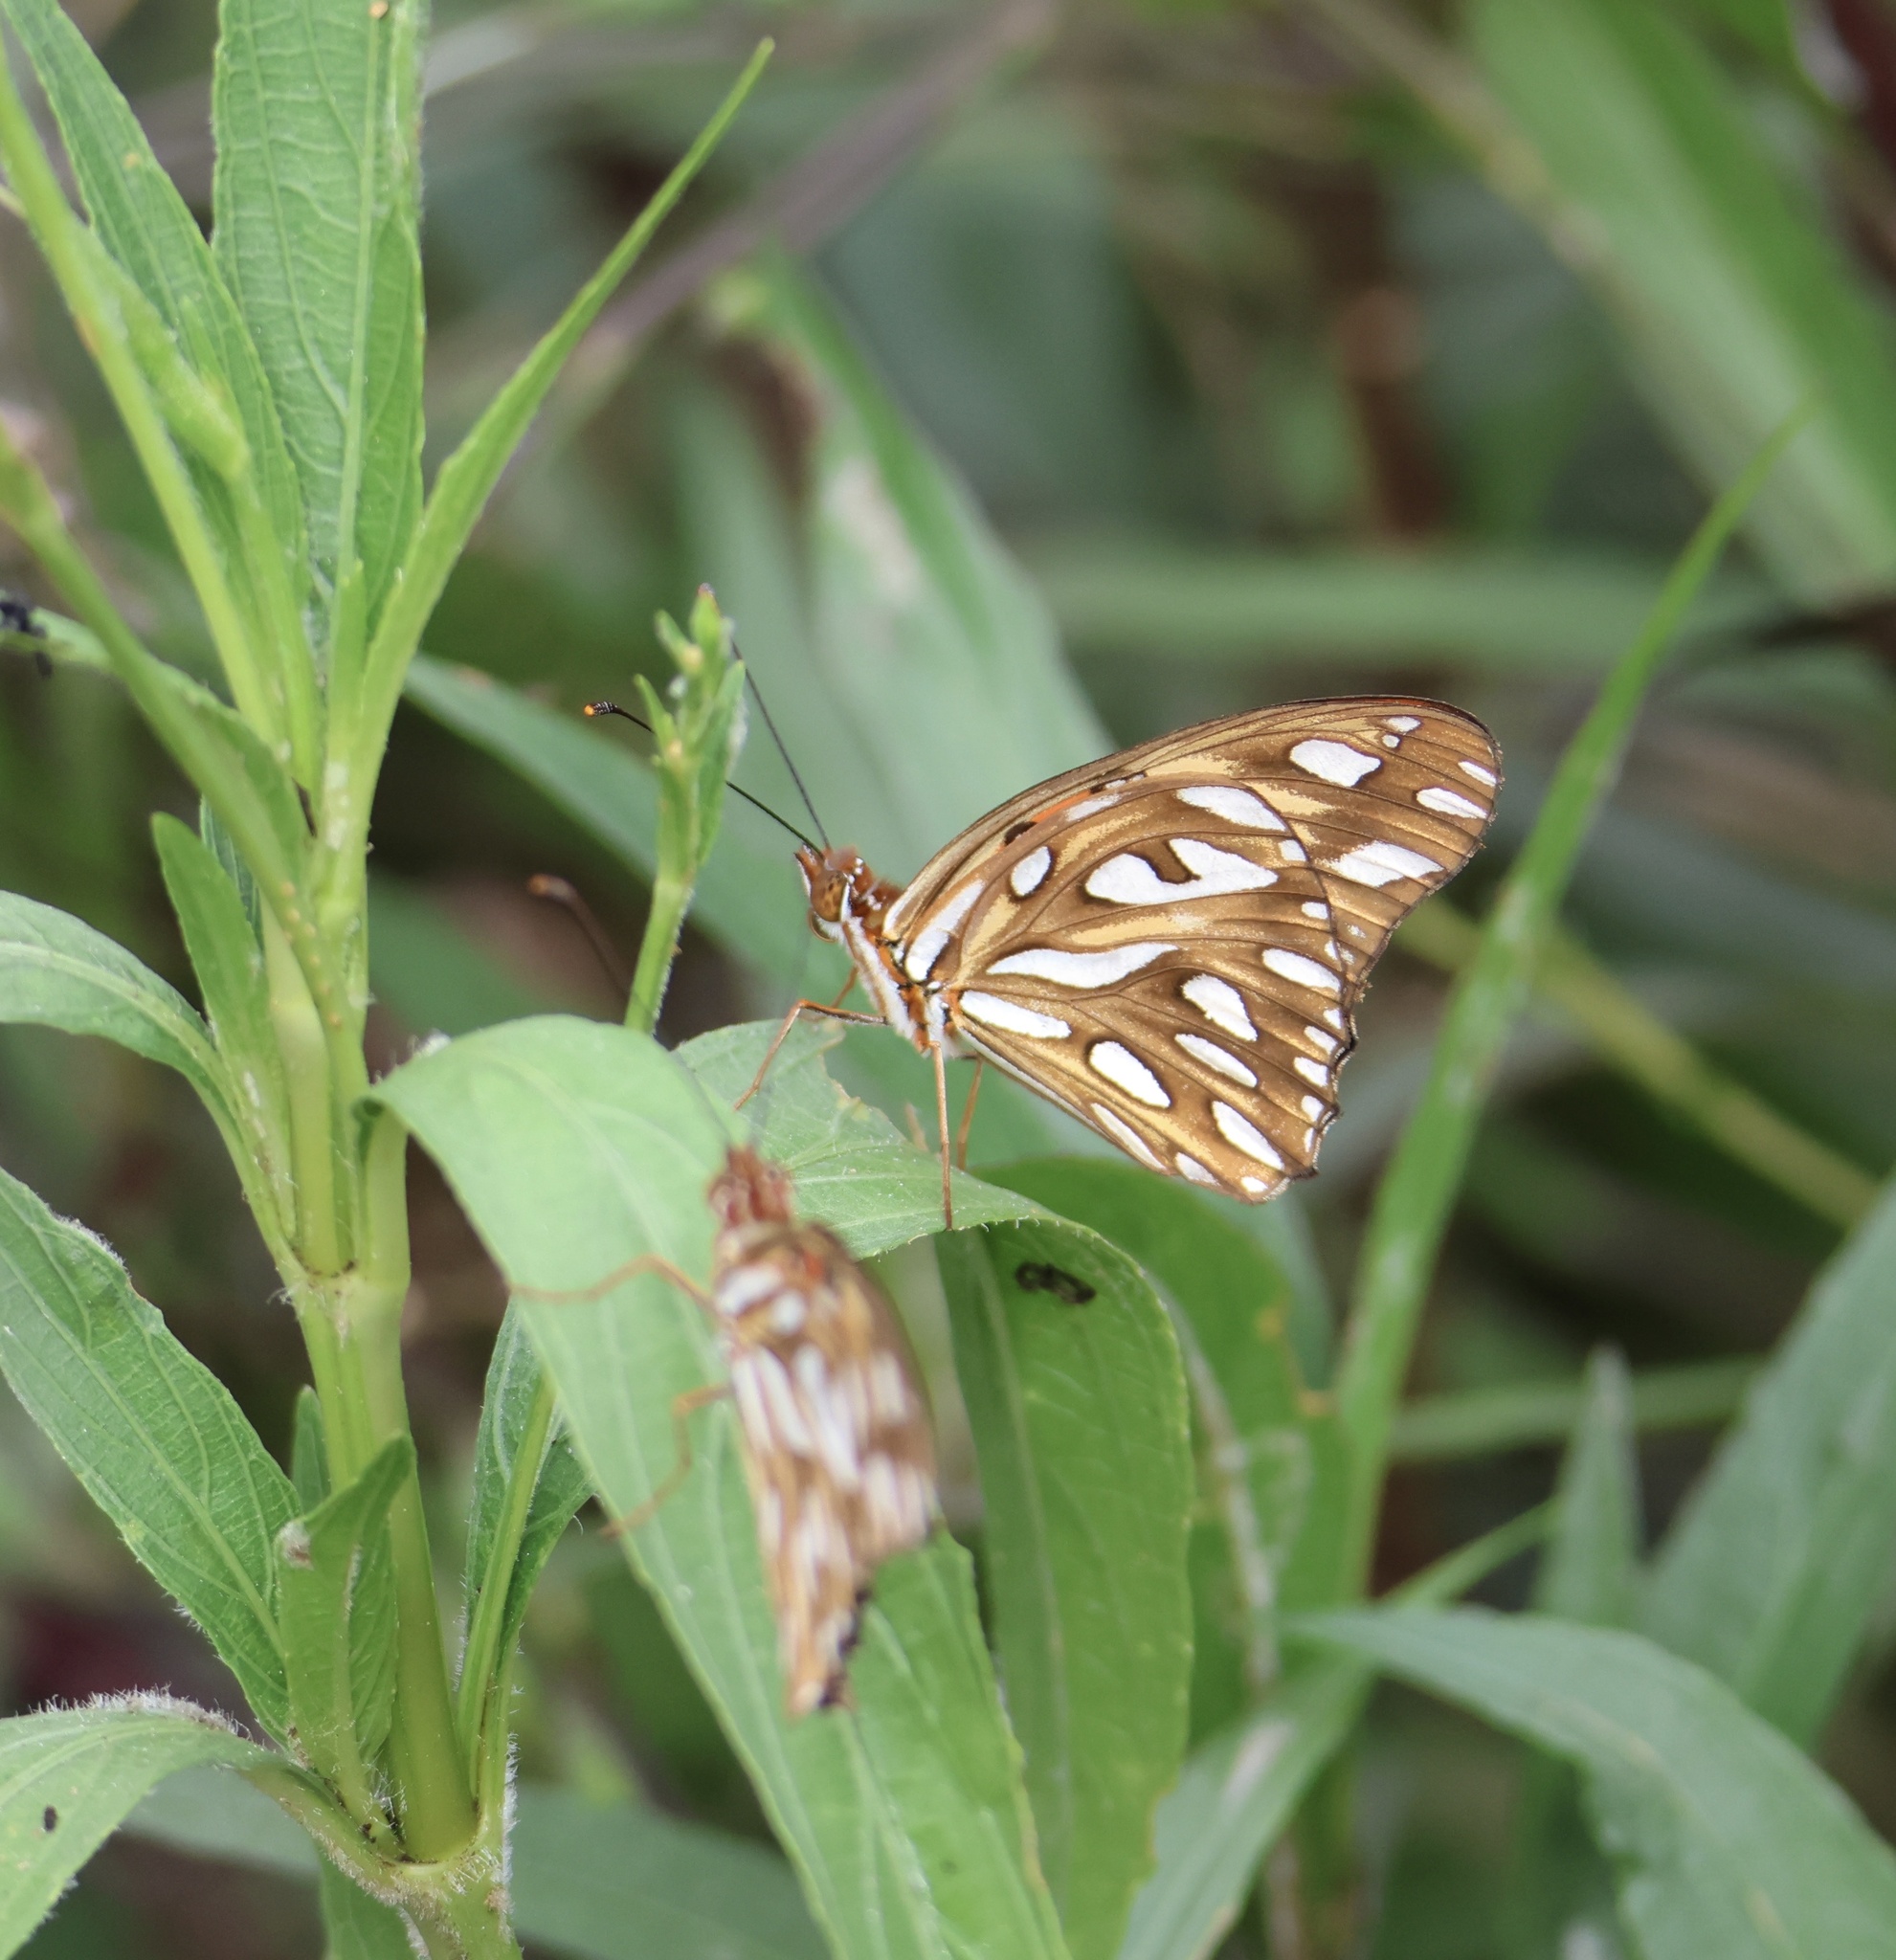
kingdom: Animalia
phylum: Arthropoda
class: Insecta
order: Lepidoptera
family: Nymphalidae
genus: Dione
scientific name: Dione vanillae
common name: Gulf fritillary
